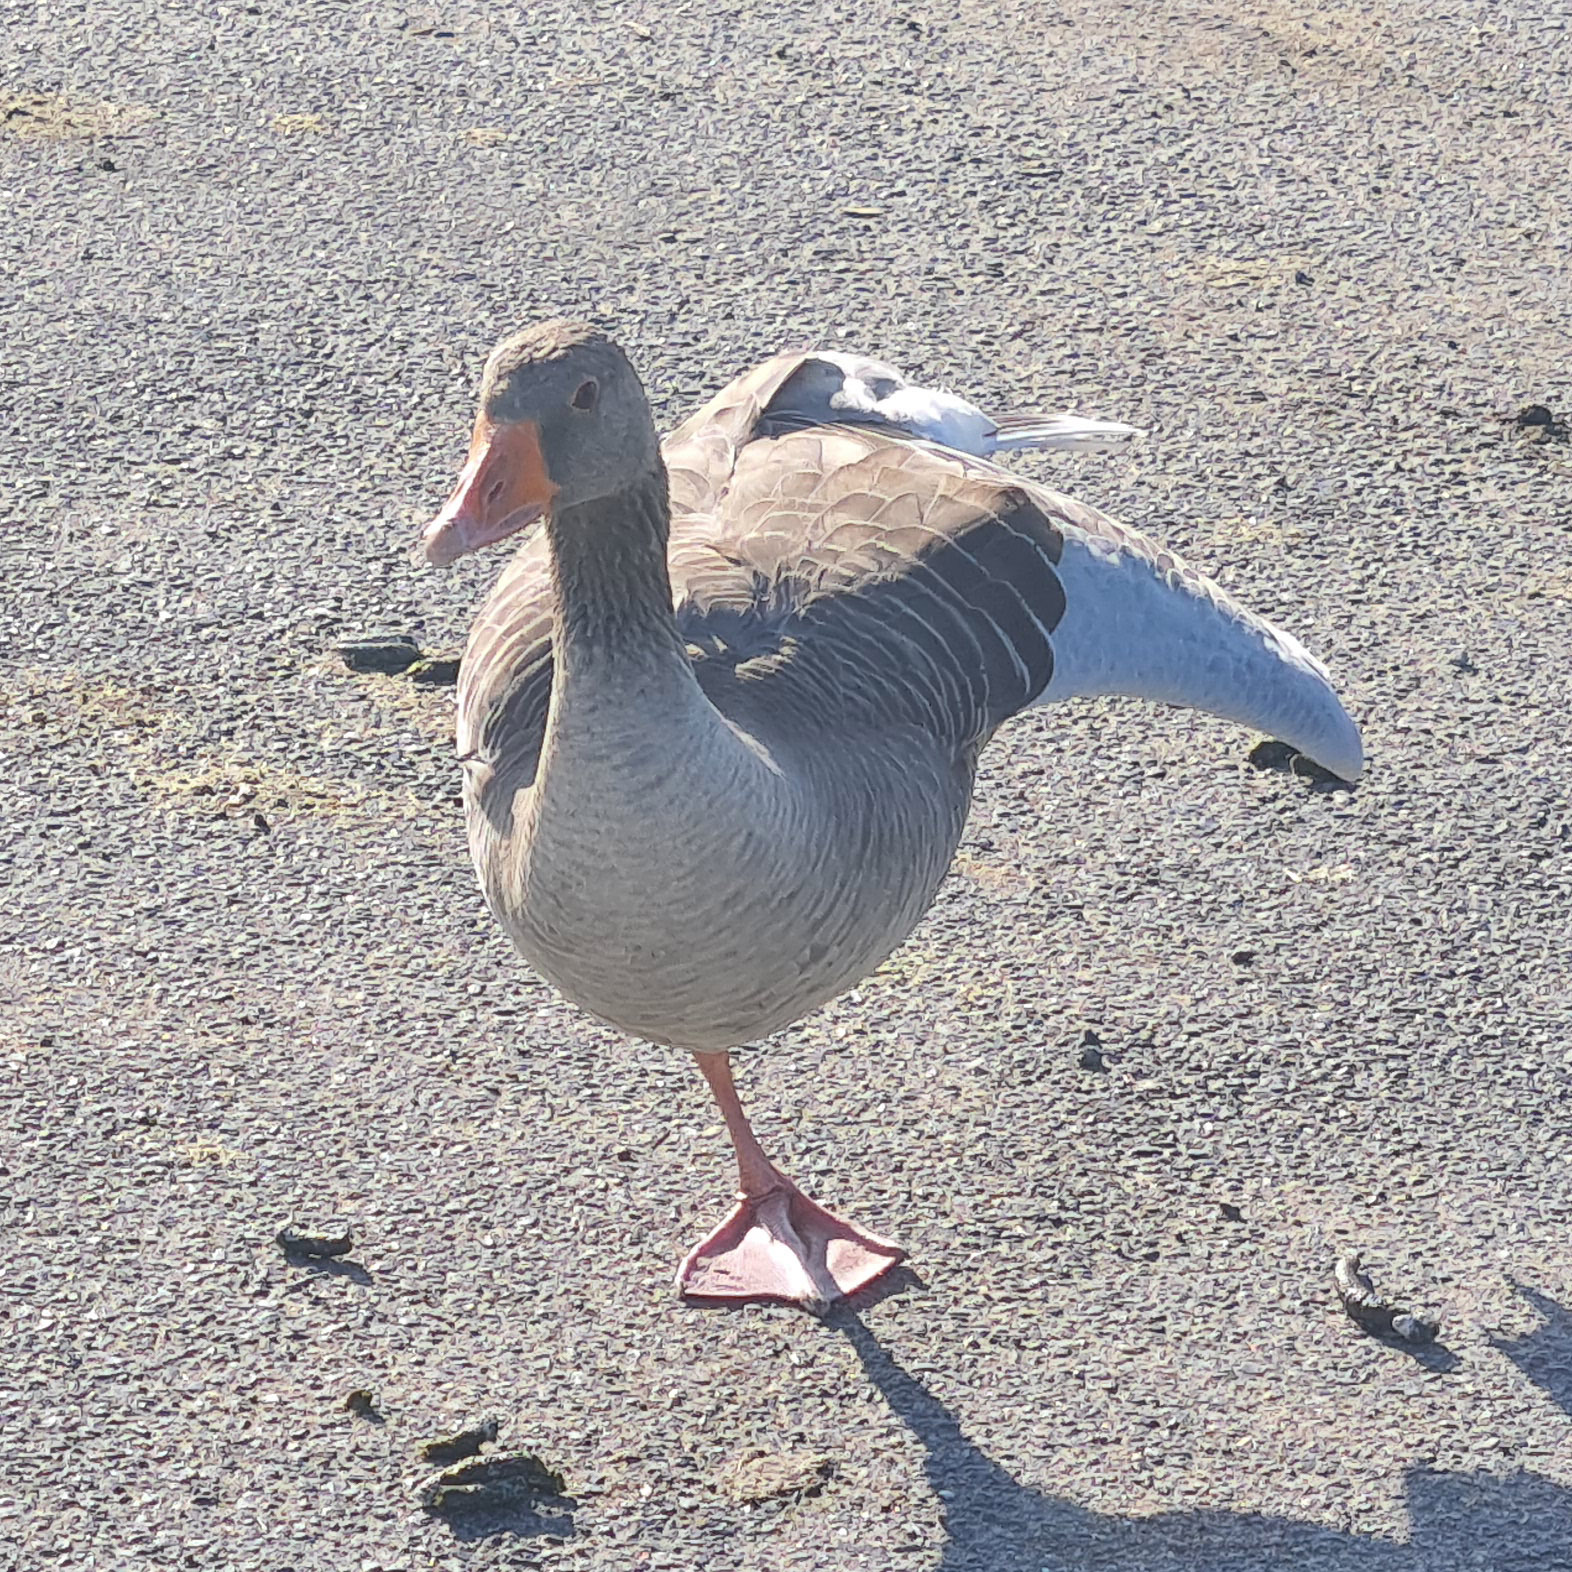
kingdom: Animalia
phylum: Chordata
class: Aves
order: Anseriformes
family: Anatidae
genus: Anser
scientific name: Anser anser
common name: Greylag goose
